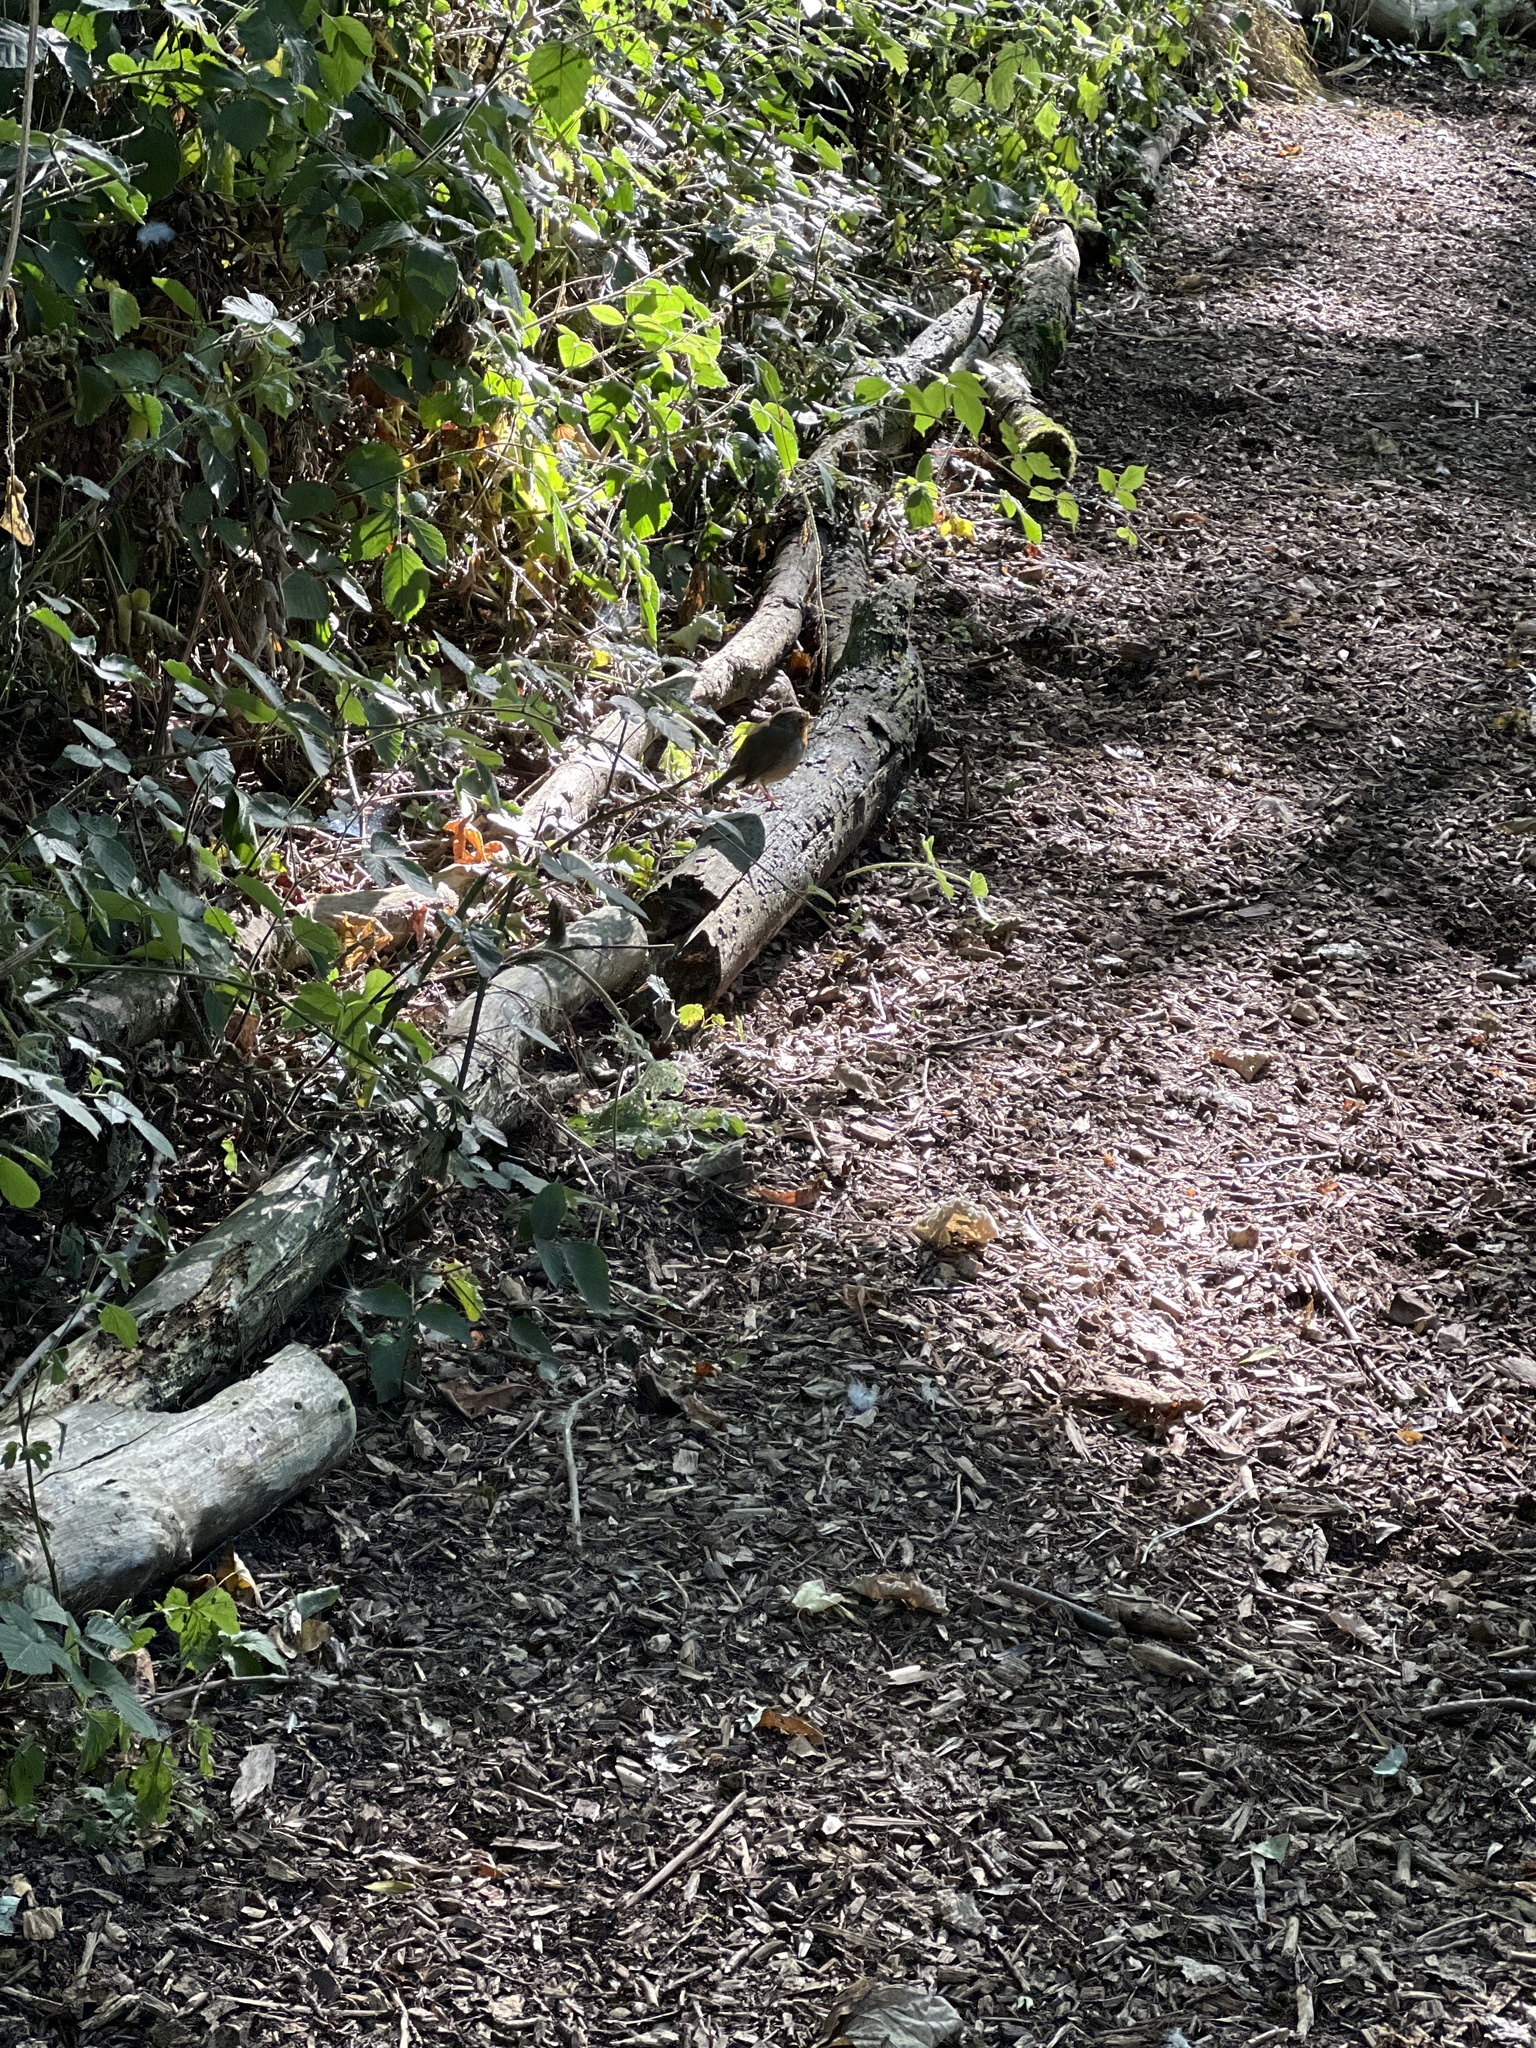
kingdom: Animalia
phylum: Chordata
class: Aves
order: Passeriformes
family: Muscicapidae
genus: Erithacus
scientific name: Erithacus rubecula
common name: European robin
